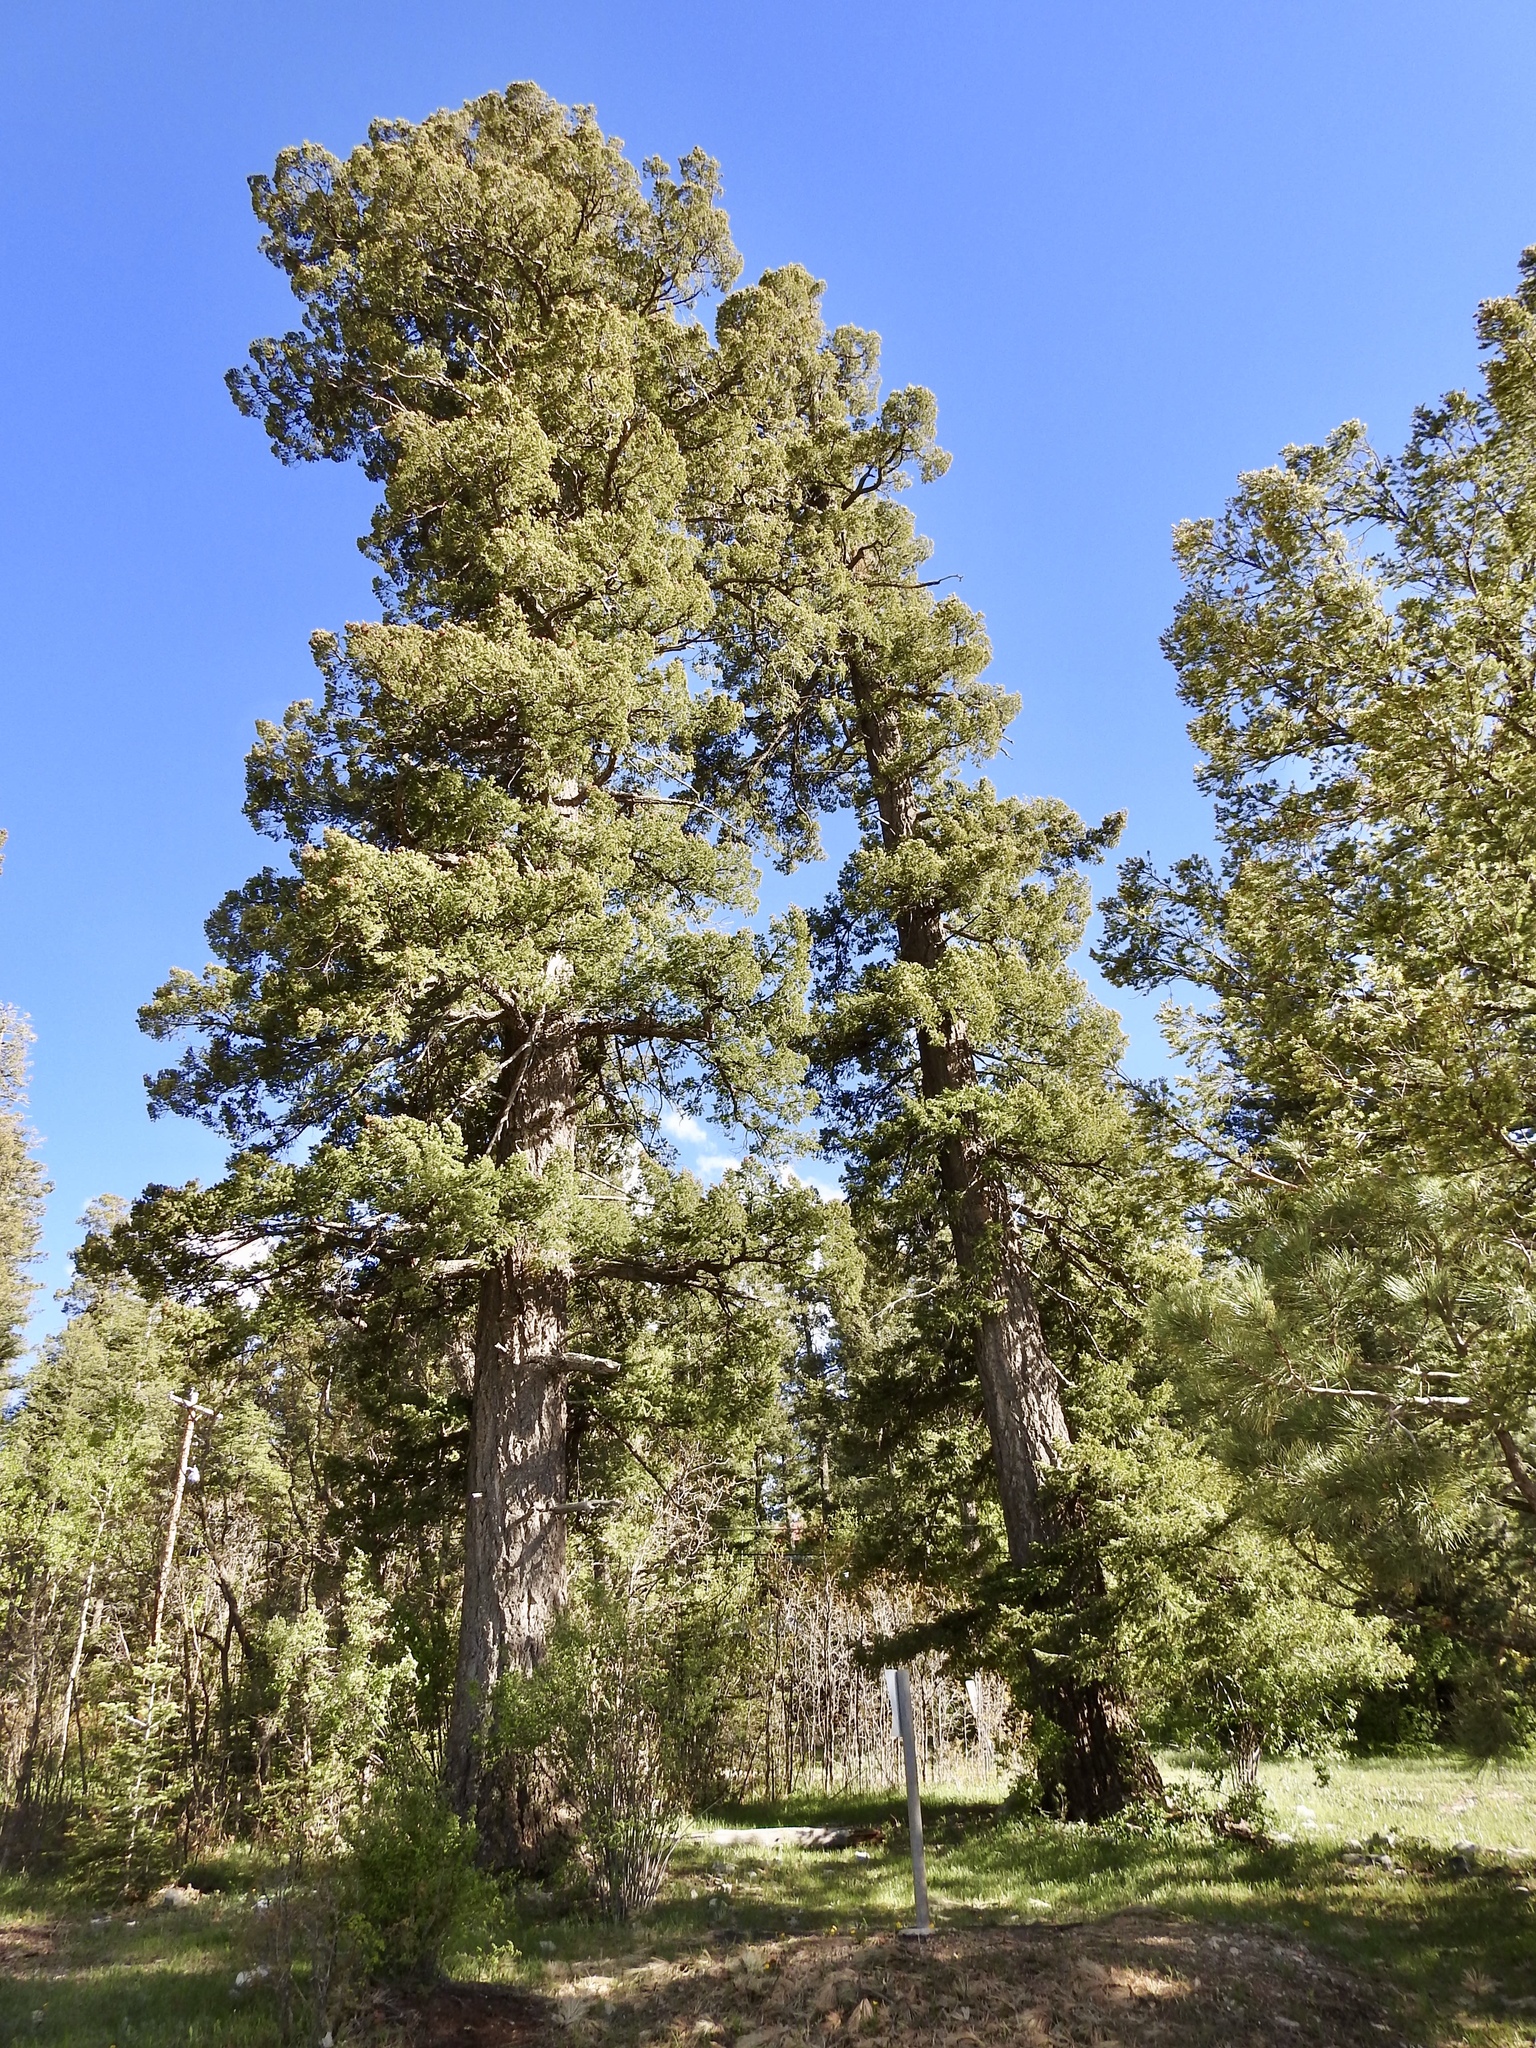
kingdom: Plantae
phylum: Tracheophyta
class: Pinopsida
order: Pinales
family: Pinaceae
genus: Pseudotsuga
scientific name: Pseudotsuga menziesii
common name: Douglas fir
